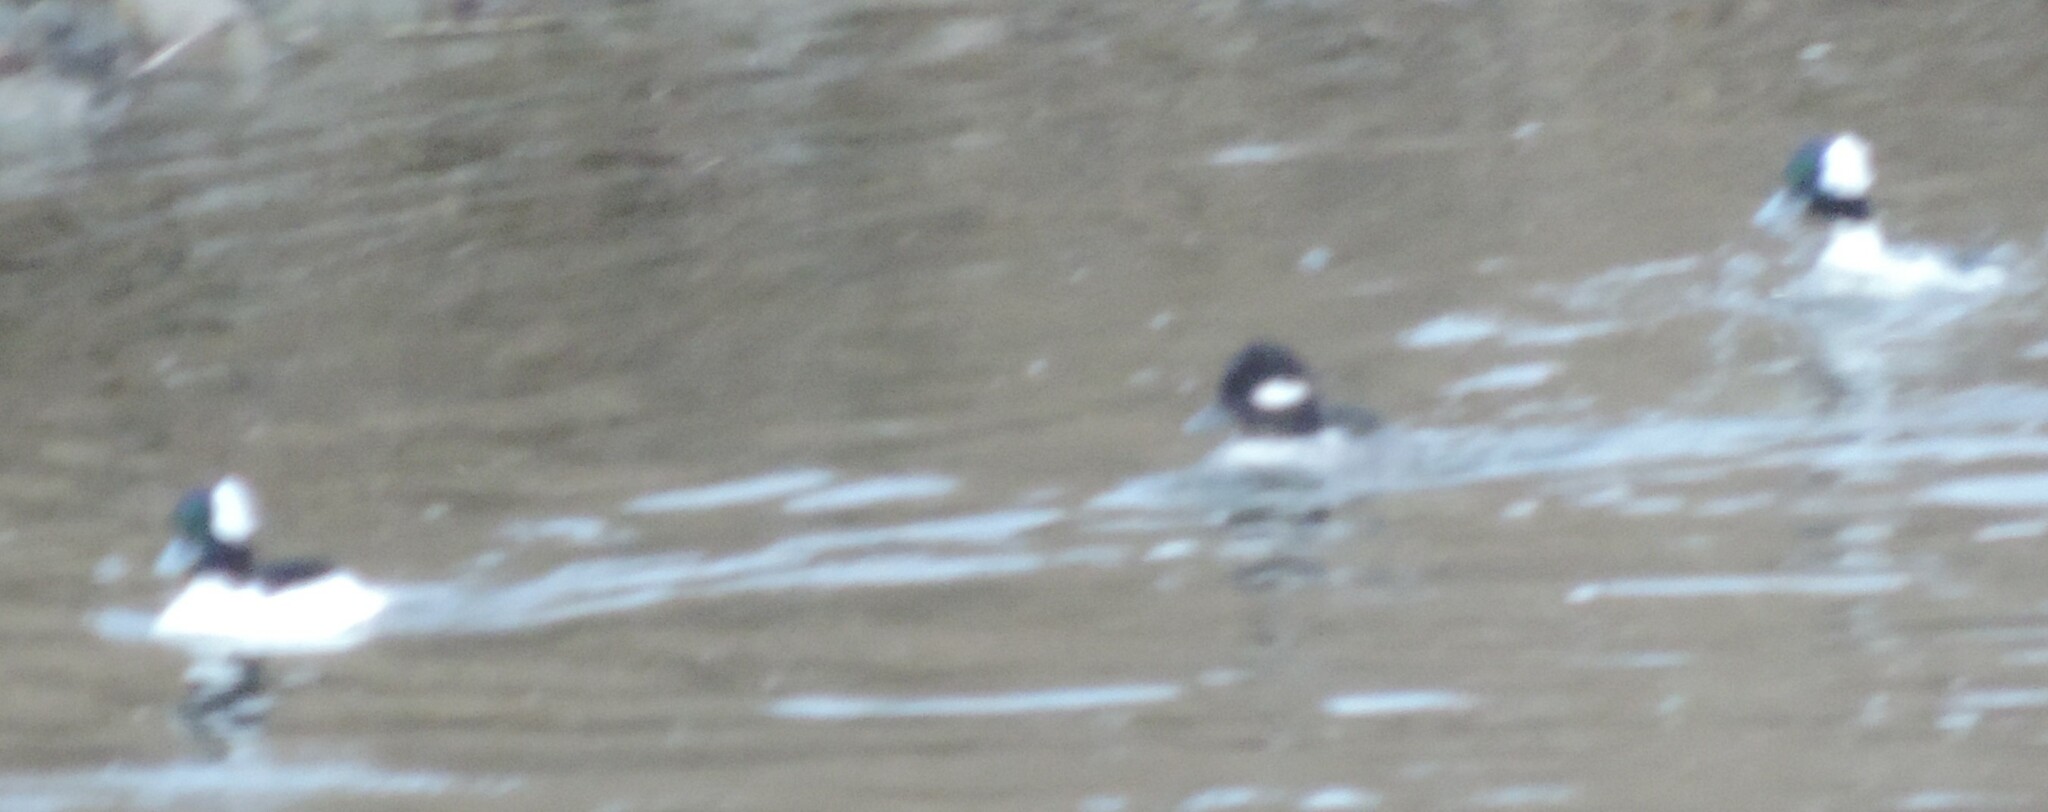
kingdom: Animalia
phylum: Chordata
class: Aves
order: Anseriformes
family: Anatidae
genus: Bucephala
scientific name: Bucephala albeola
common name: Bufflehead
